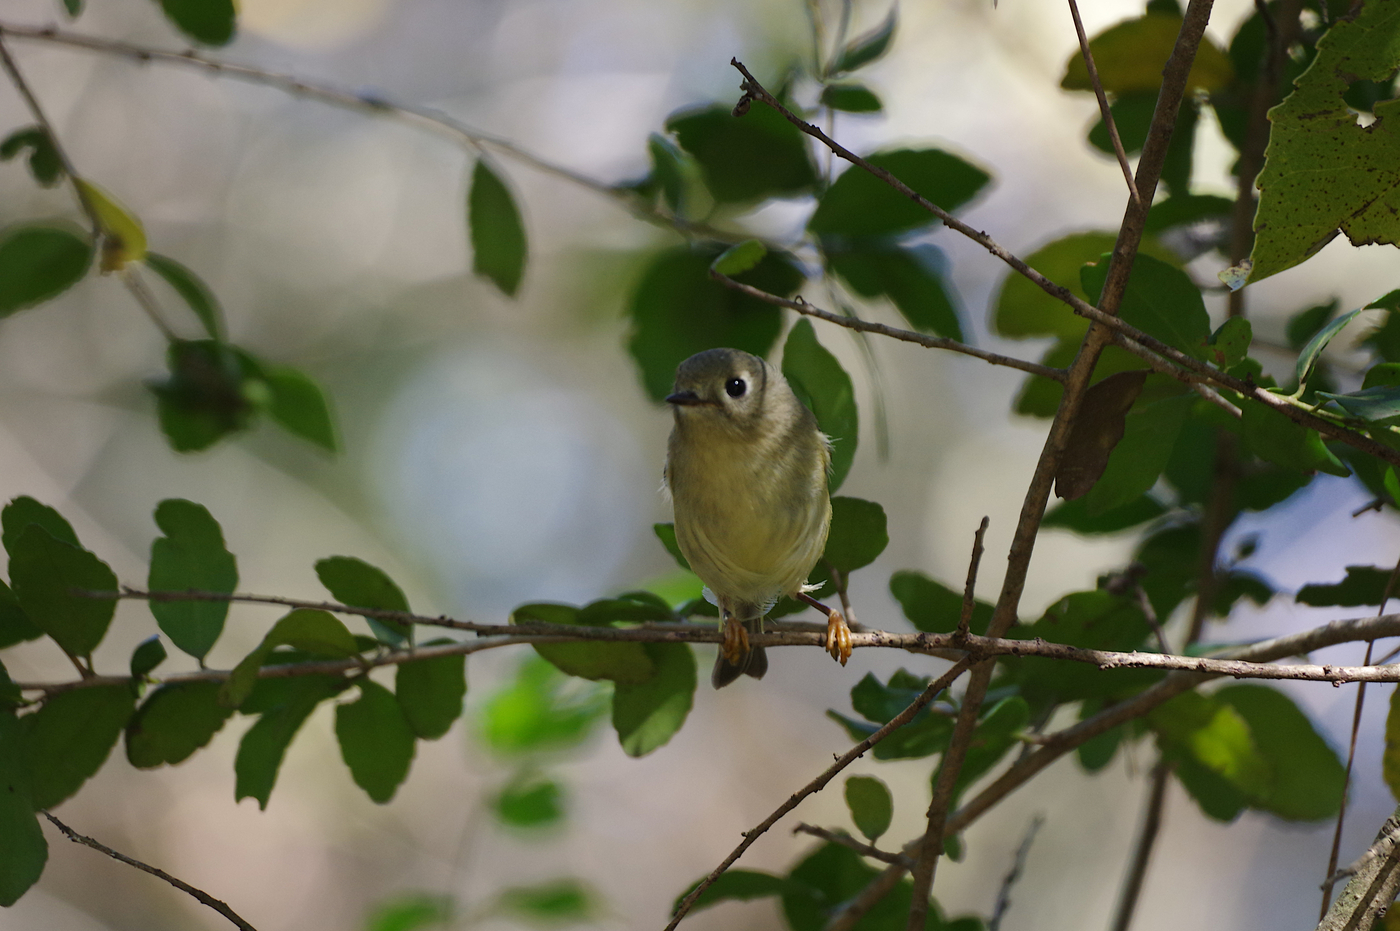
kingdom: Animalia
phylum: Chordata
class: Aves
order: Passeriformes
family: Regulidae
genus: Regulus
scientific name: Regulus calendula
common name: Ruby-crowned kinglet
